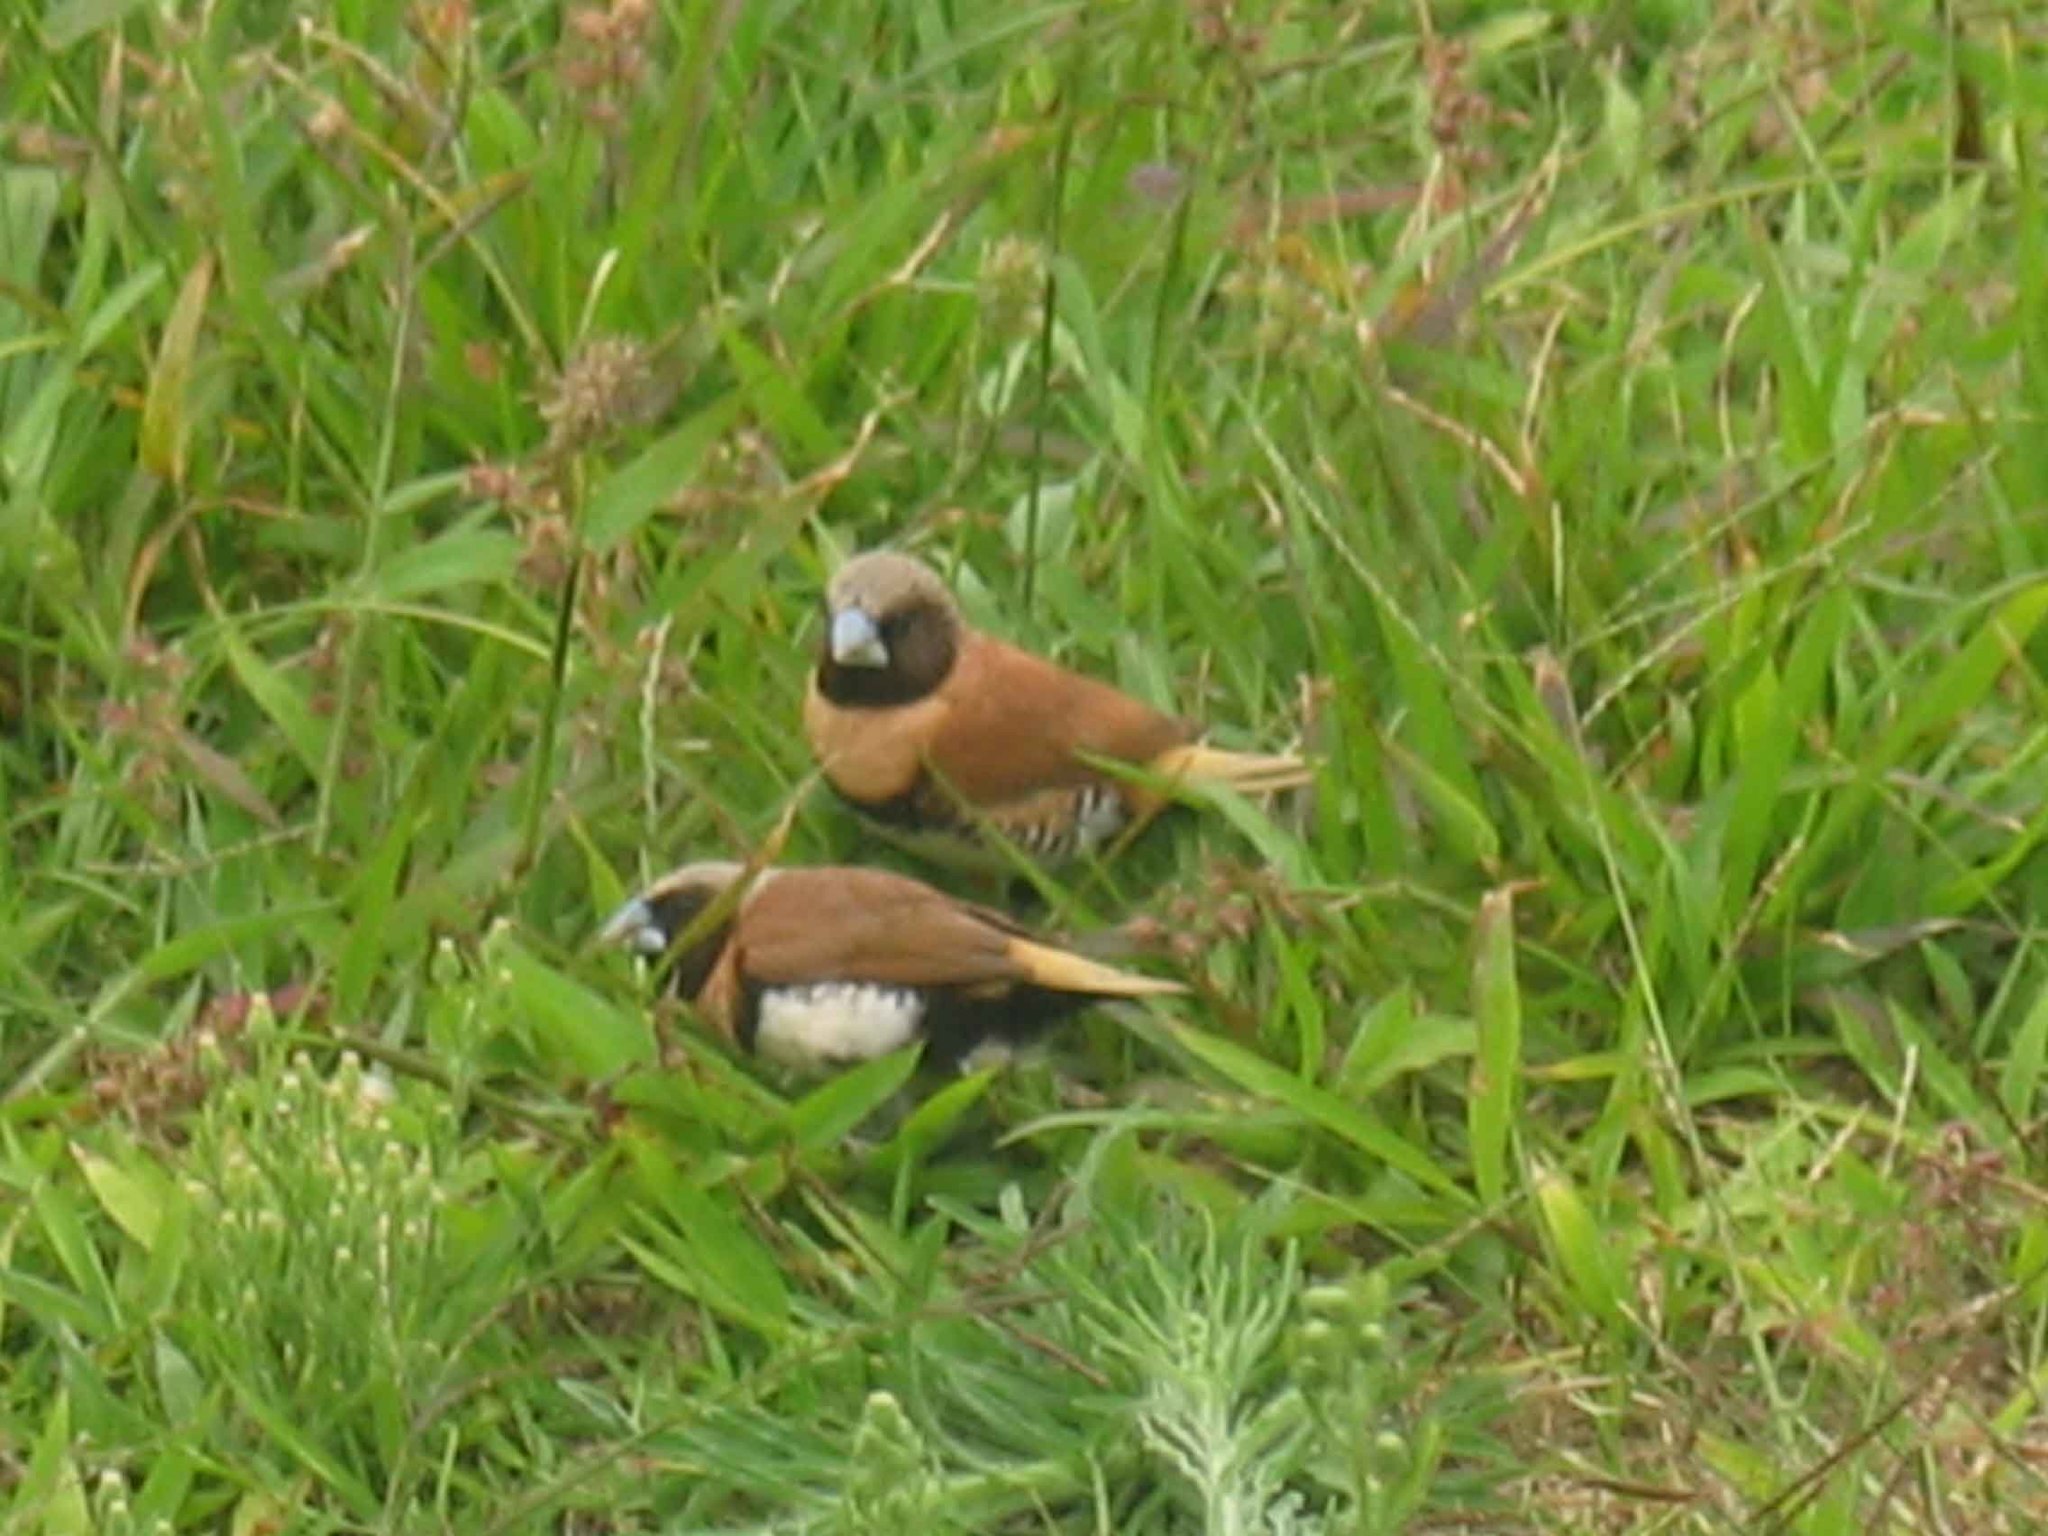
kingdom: Animalia
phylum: Chordata
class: Aves
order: Passeriformes
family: Estrildidae
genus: Lonchura
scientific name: Lonchura castaneothorax
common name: Chestnut-breasted mannikin
